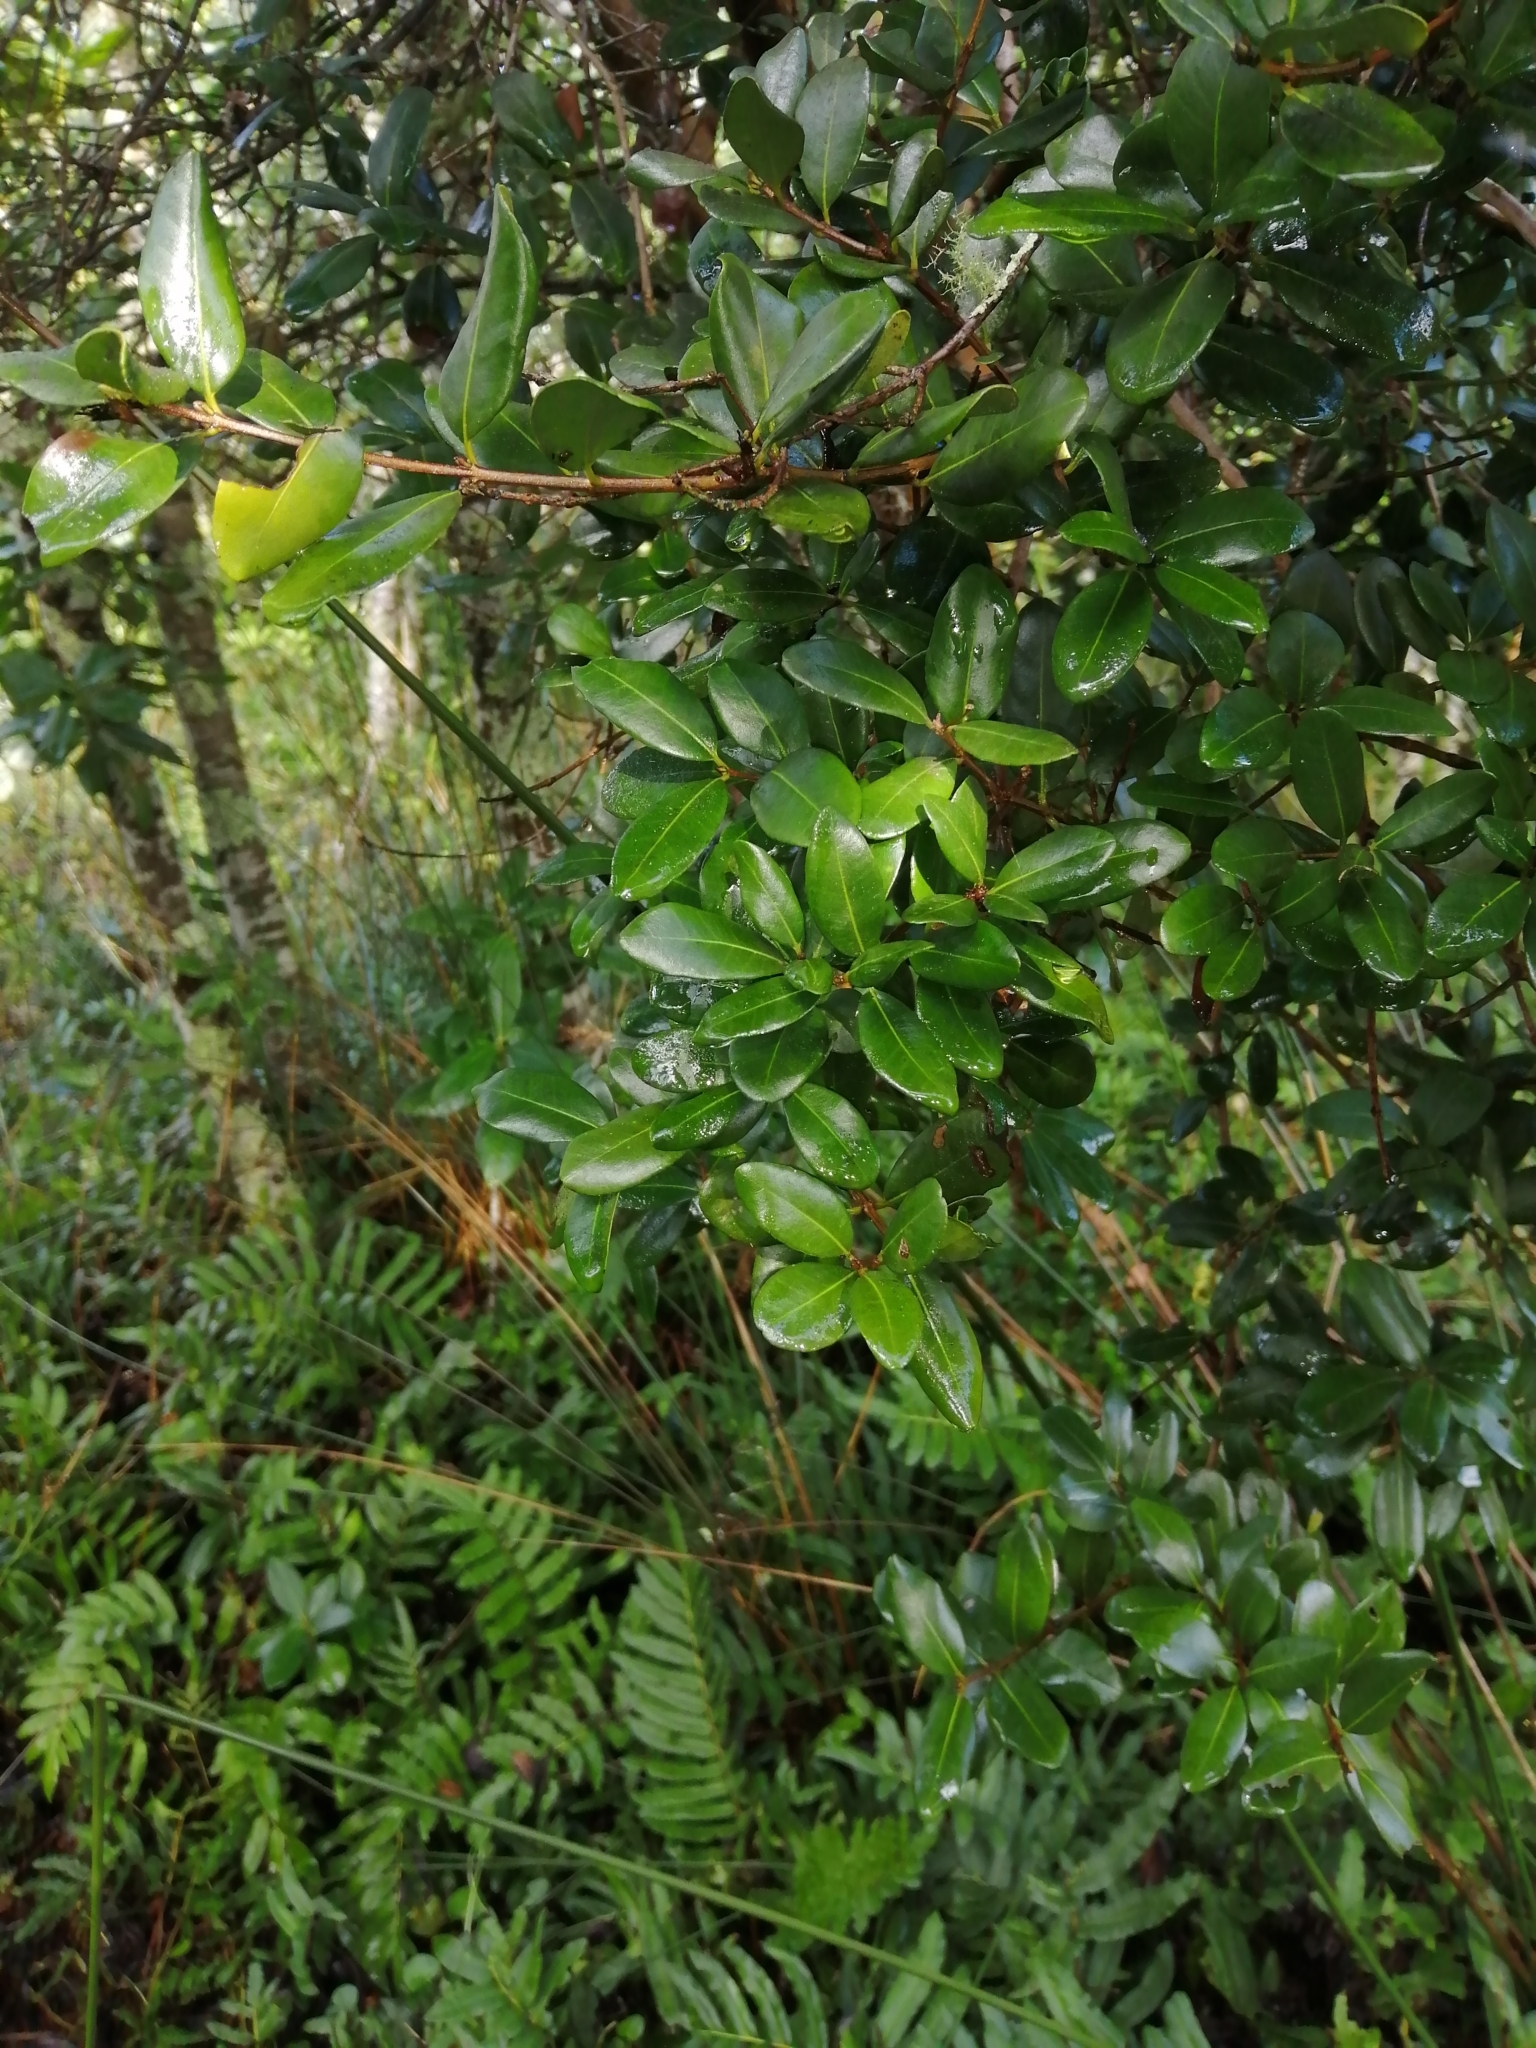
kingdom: Plantae
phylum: Tracheophyta
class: Magnoliopsida
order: Myrtales
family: Myrtaceae
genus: Blepharocalyx
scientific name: Blepharocalyx cruckshanksii
